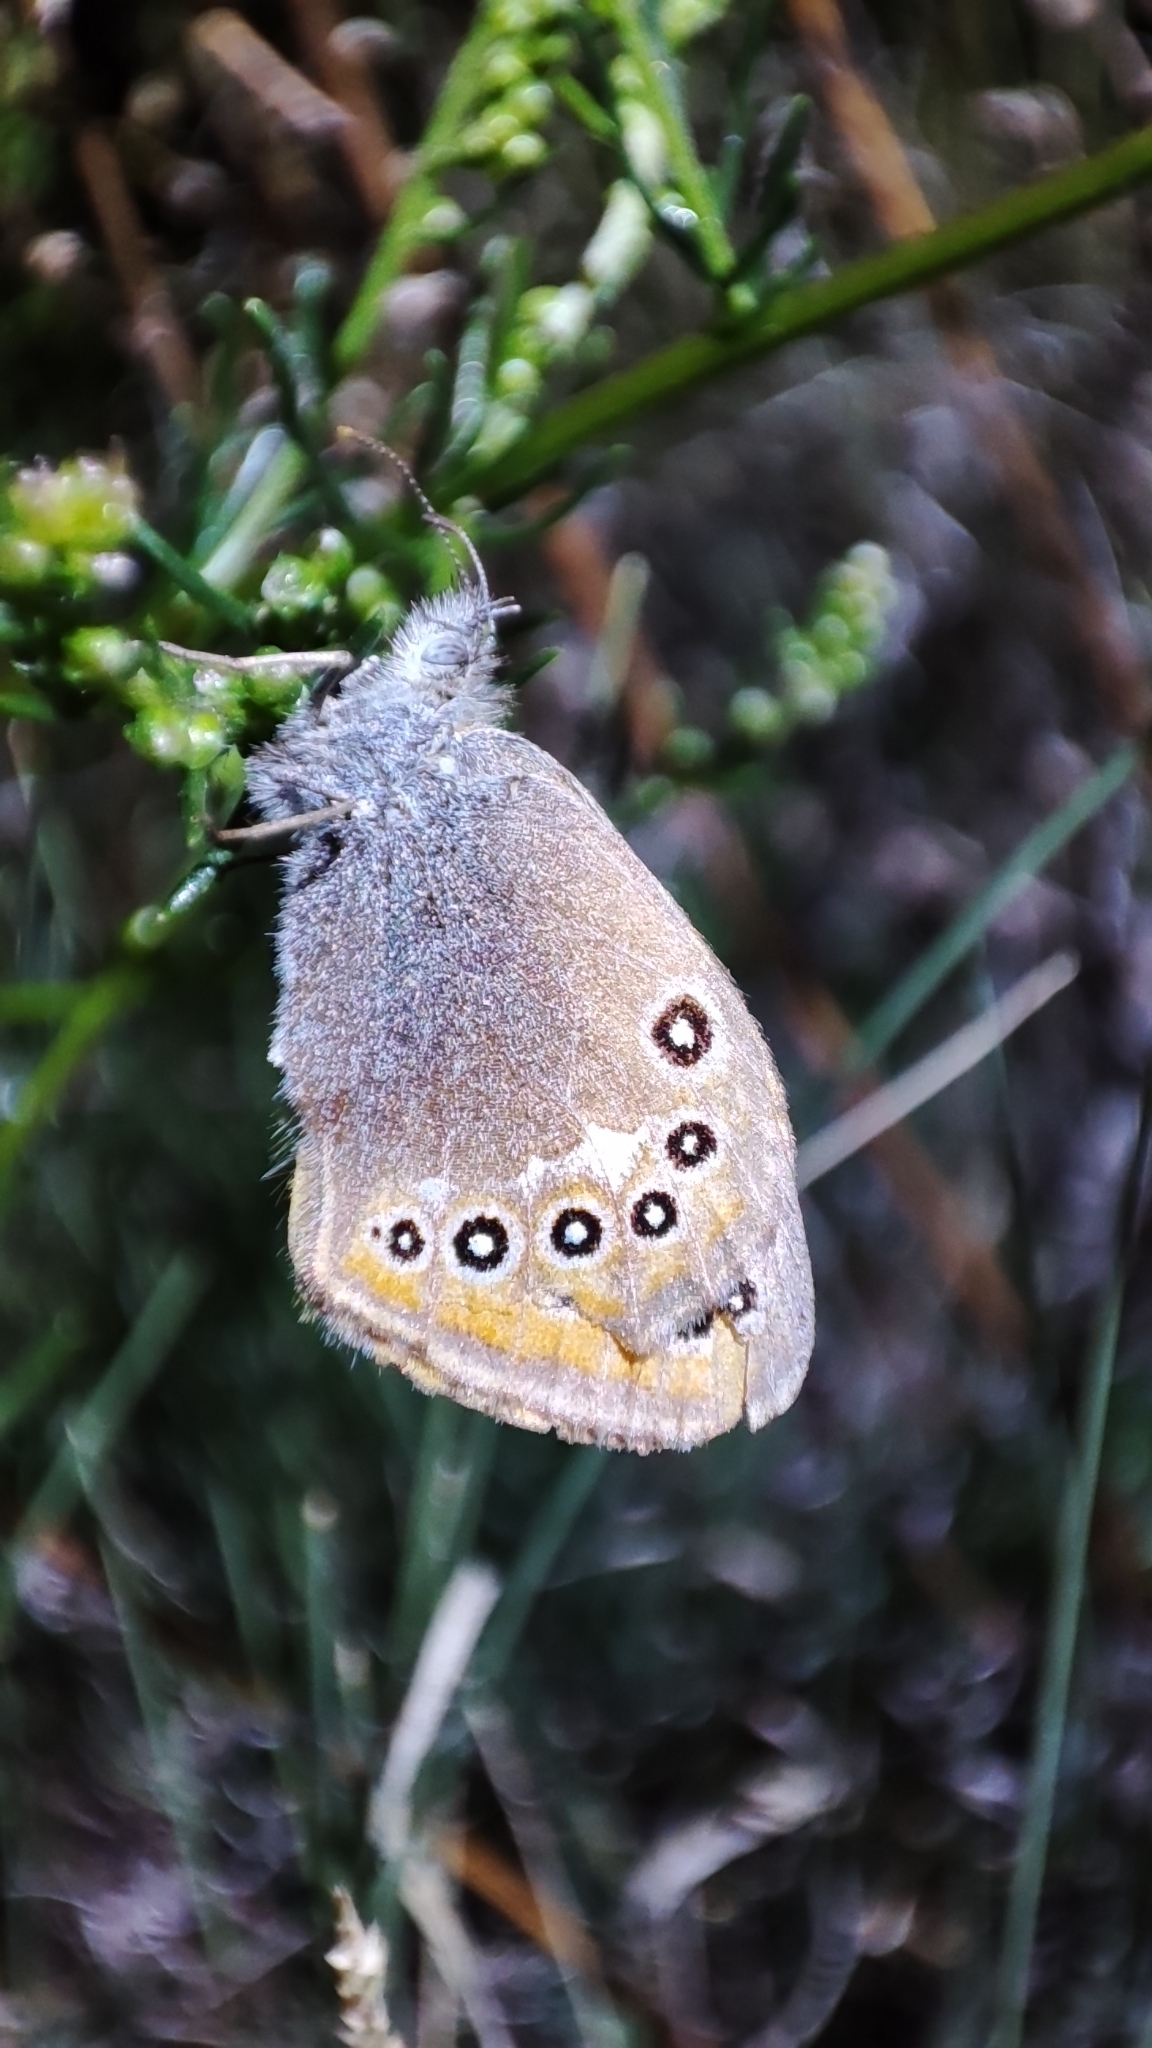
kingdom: Animalia
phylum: Arthropoda
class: Insecta
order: Lepidoptera
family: Nymphalidae
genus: Coenonympha
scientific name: Coenonympha amaryllis
